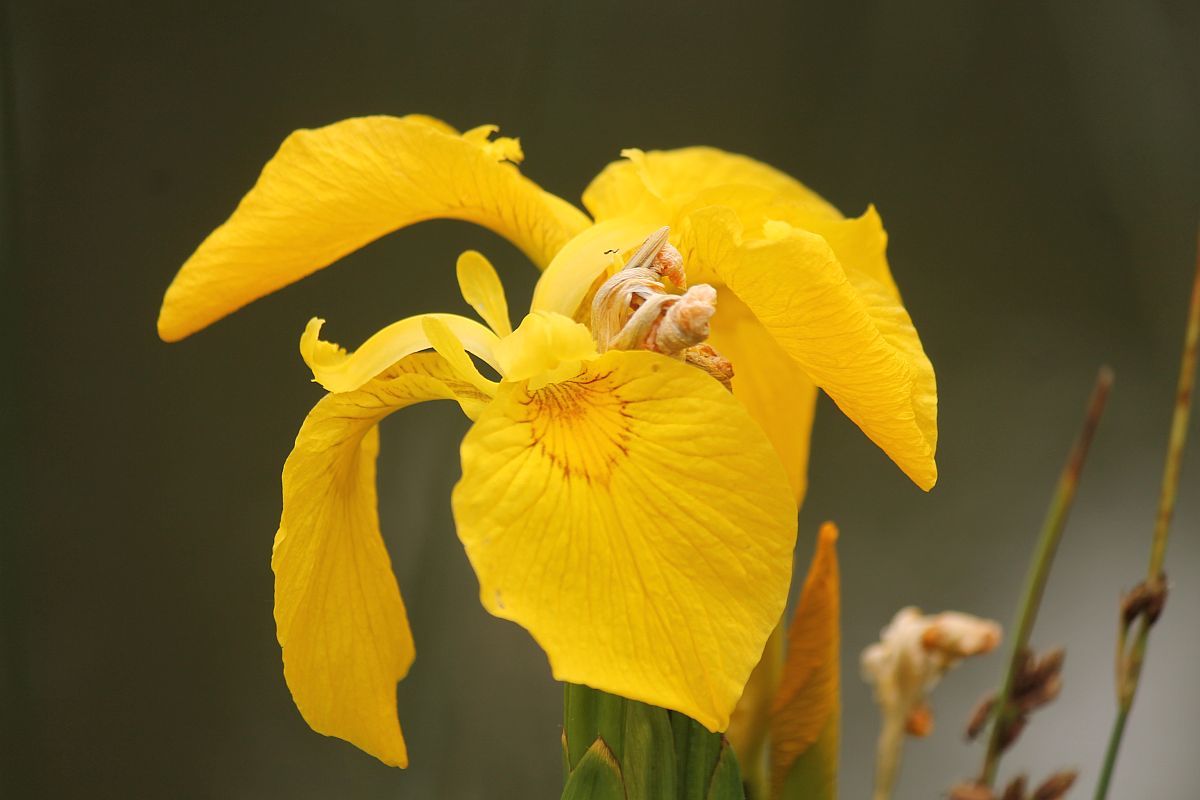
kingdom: Plantae
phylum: Tracheophyta
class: Liliopsida
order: Asparagales
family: Iridaceae
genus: Iris
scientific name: Iris pseudacorus
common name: Yellow flag
